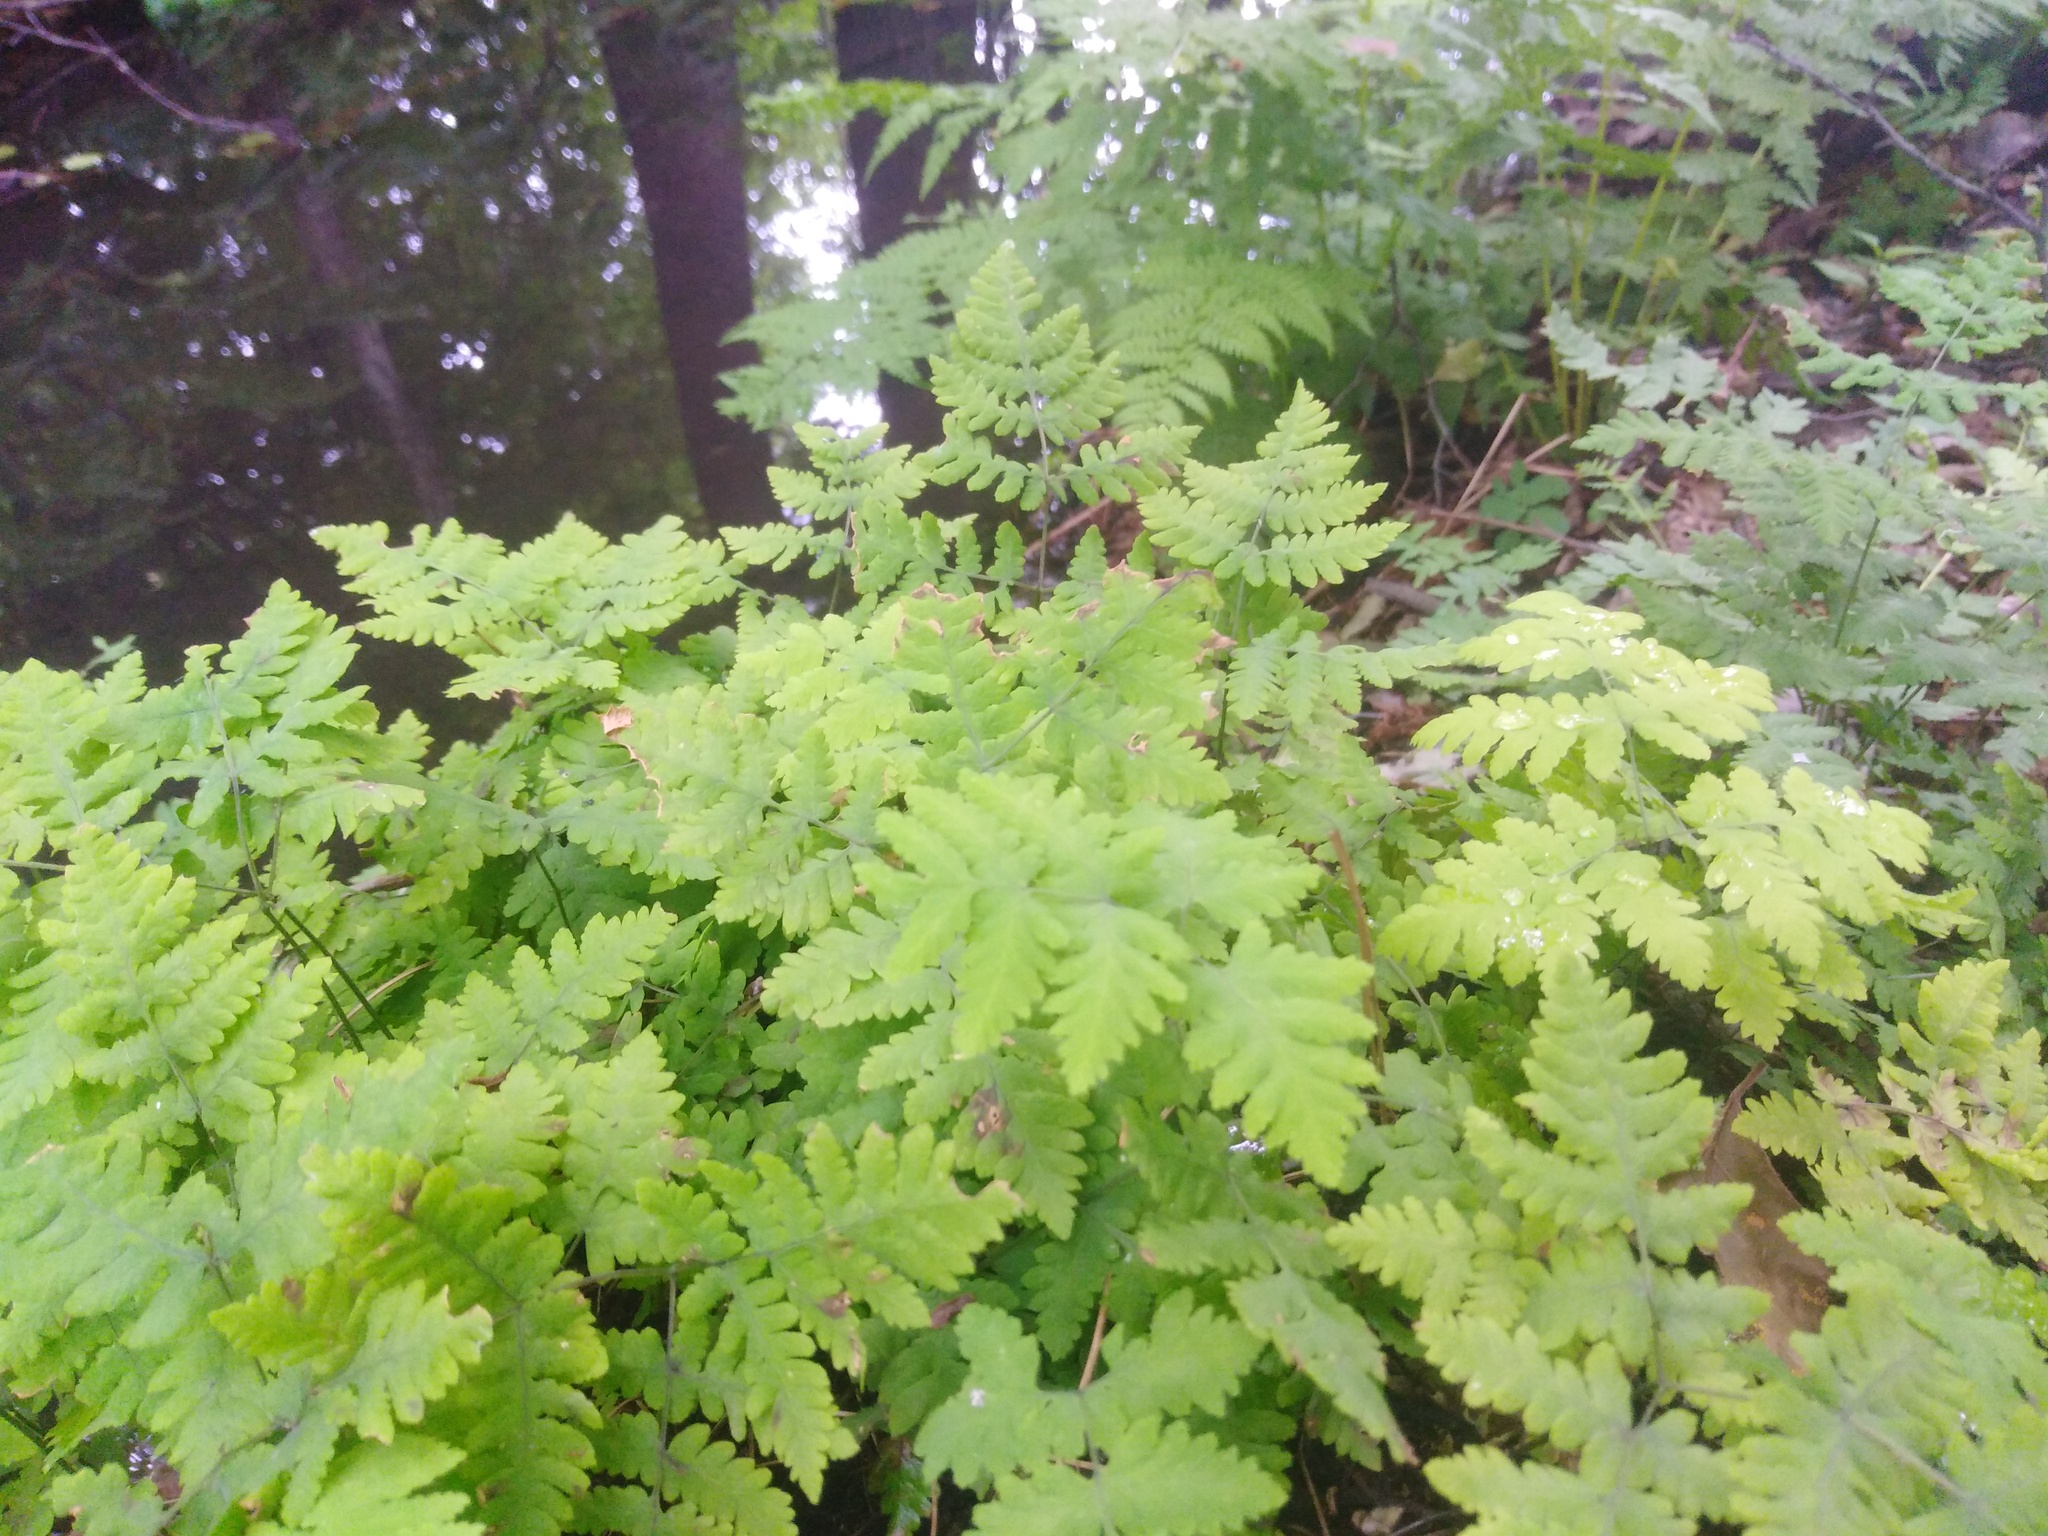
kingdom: Plantae
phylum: Tracheophyta
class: Polypodiopsida
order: Polypodiales
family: Cystopteridaceae
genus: Gymnocarpium
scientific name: Gymnocarpium dryopteris
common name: Oak fern
